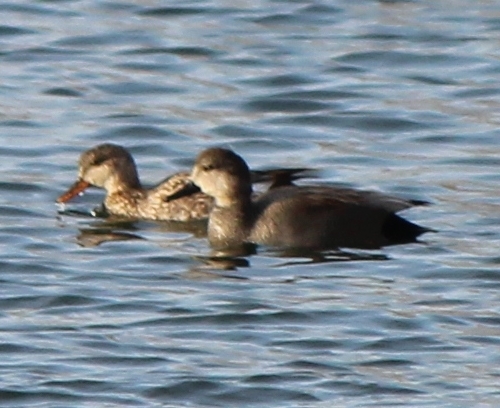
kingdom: Animalia
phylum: Chordata
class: Aves
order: Anseriformes
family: Anatidae
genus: Mareca
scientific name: Mareca strepera
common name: Gadwall
